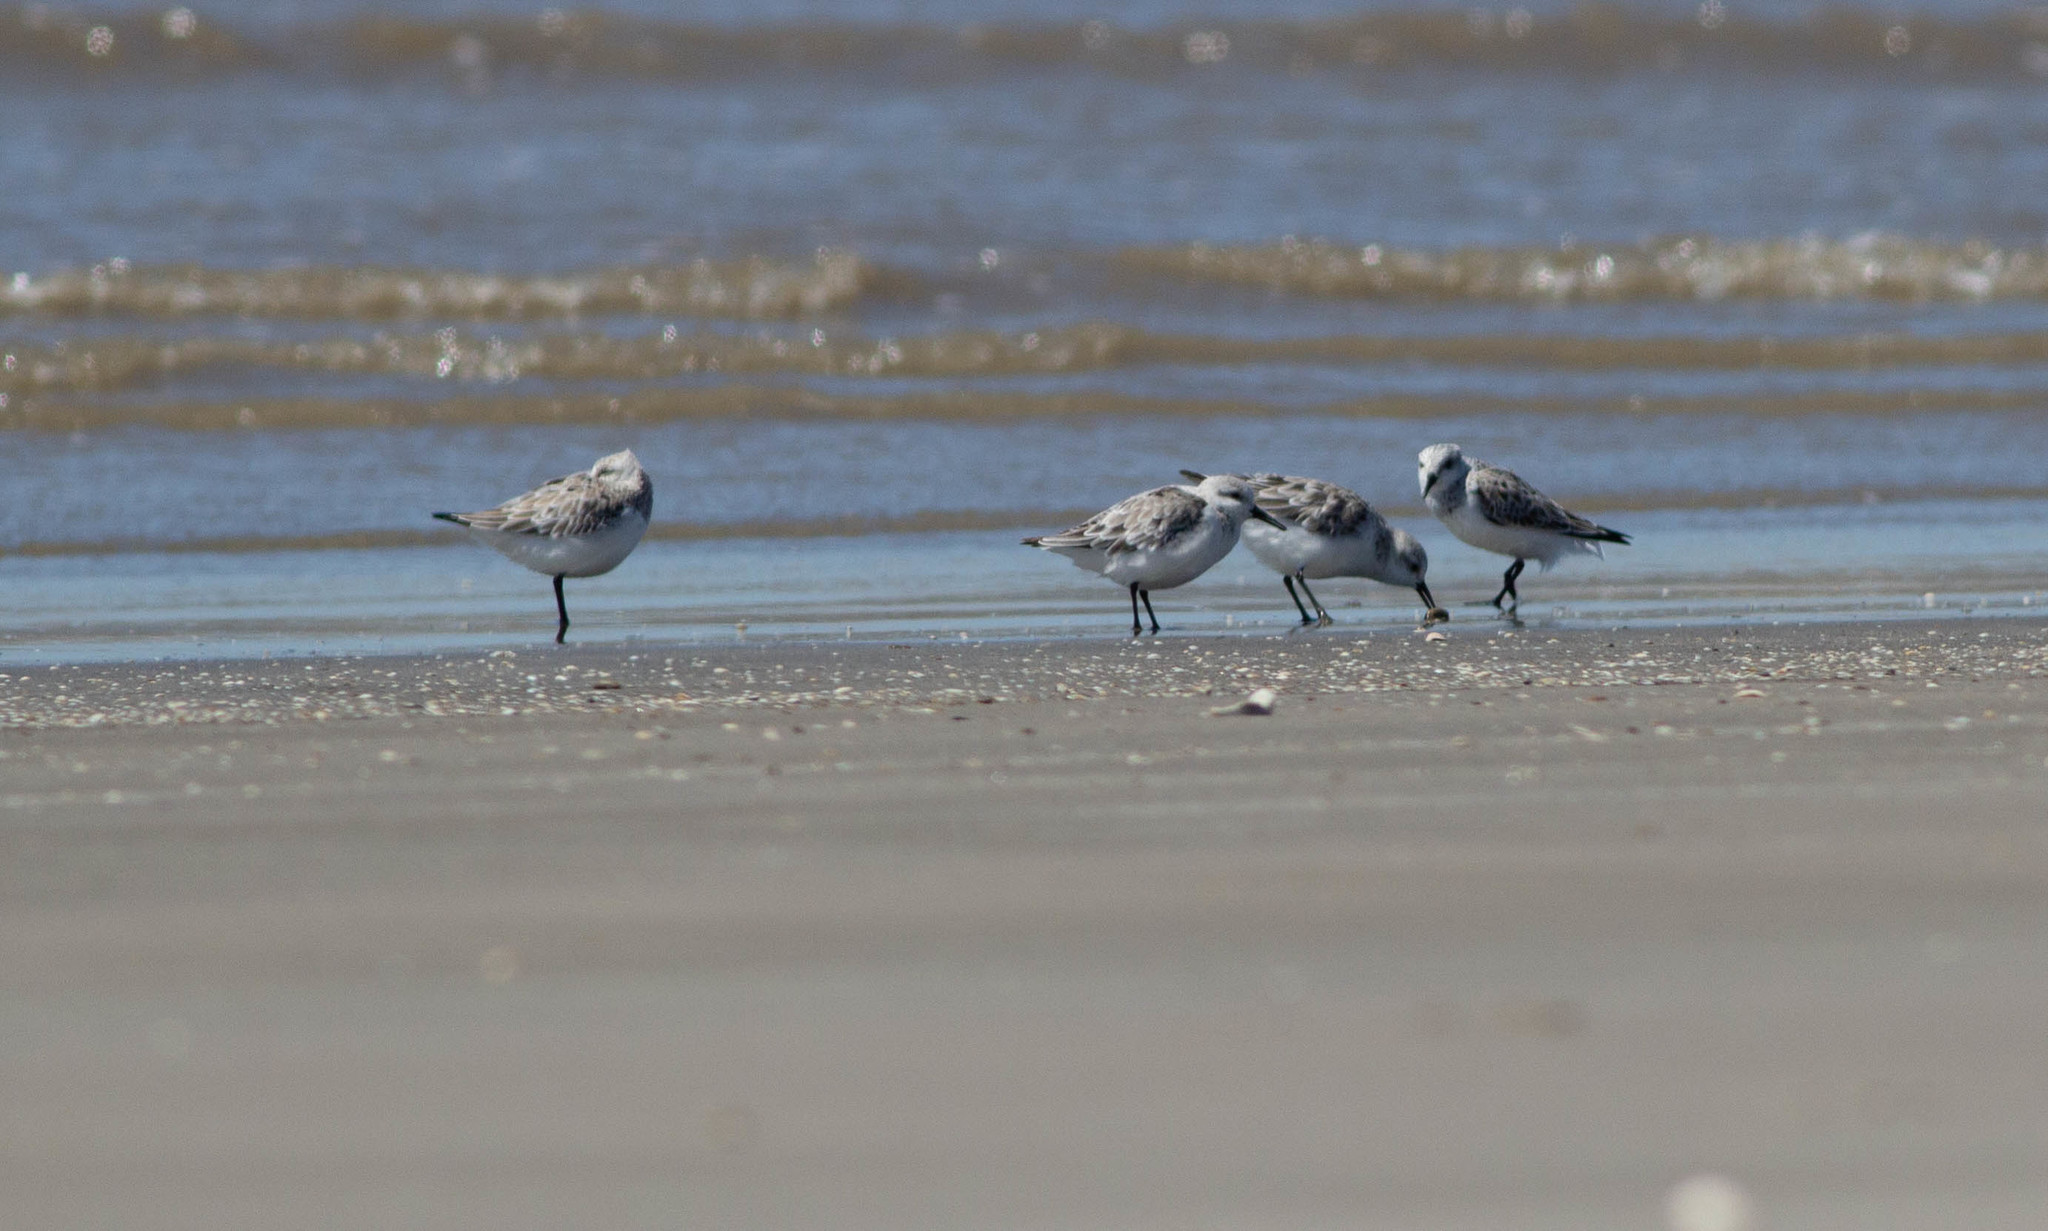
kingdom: Animalia
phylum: Chordata
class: Aves
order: Charadriiformes
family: Scolopacidae
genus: Calidris
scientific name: Calidris alba
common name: Sanderling
